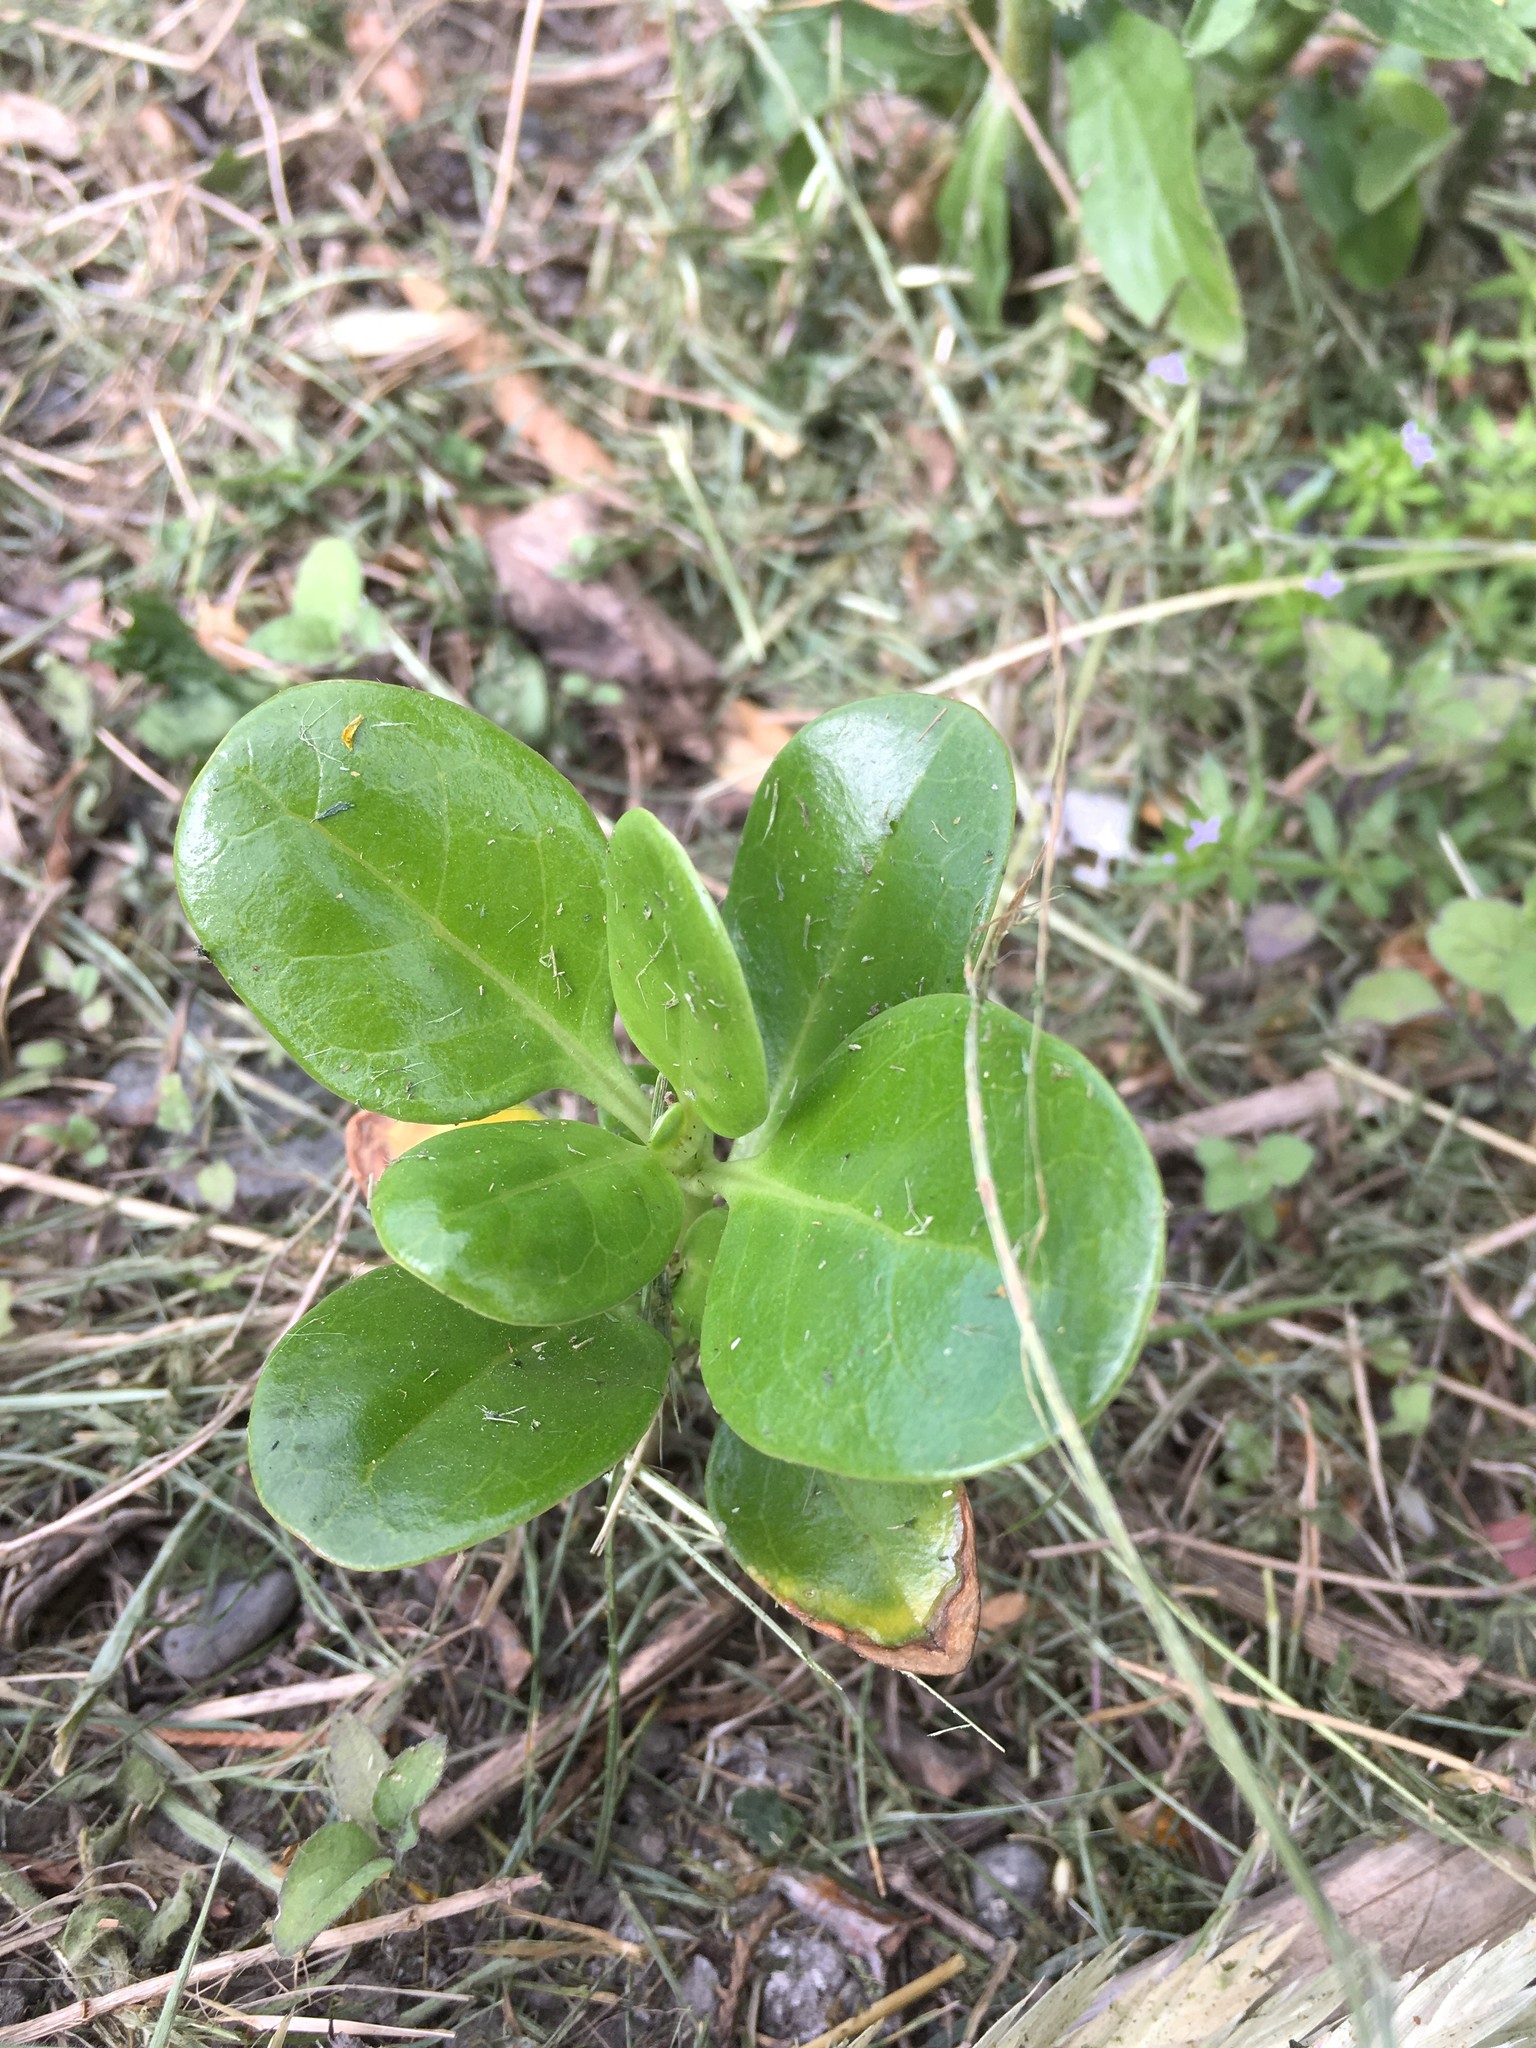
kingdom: Plantae
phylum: Tracheophyta
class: Magnoliopsida
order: Gentianales
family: Rubiaceae
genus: Coprosma
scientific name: Coprosma repens
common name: Tree bedstraw
